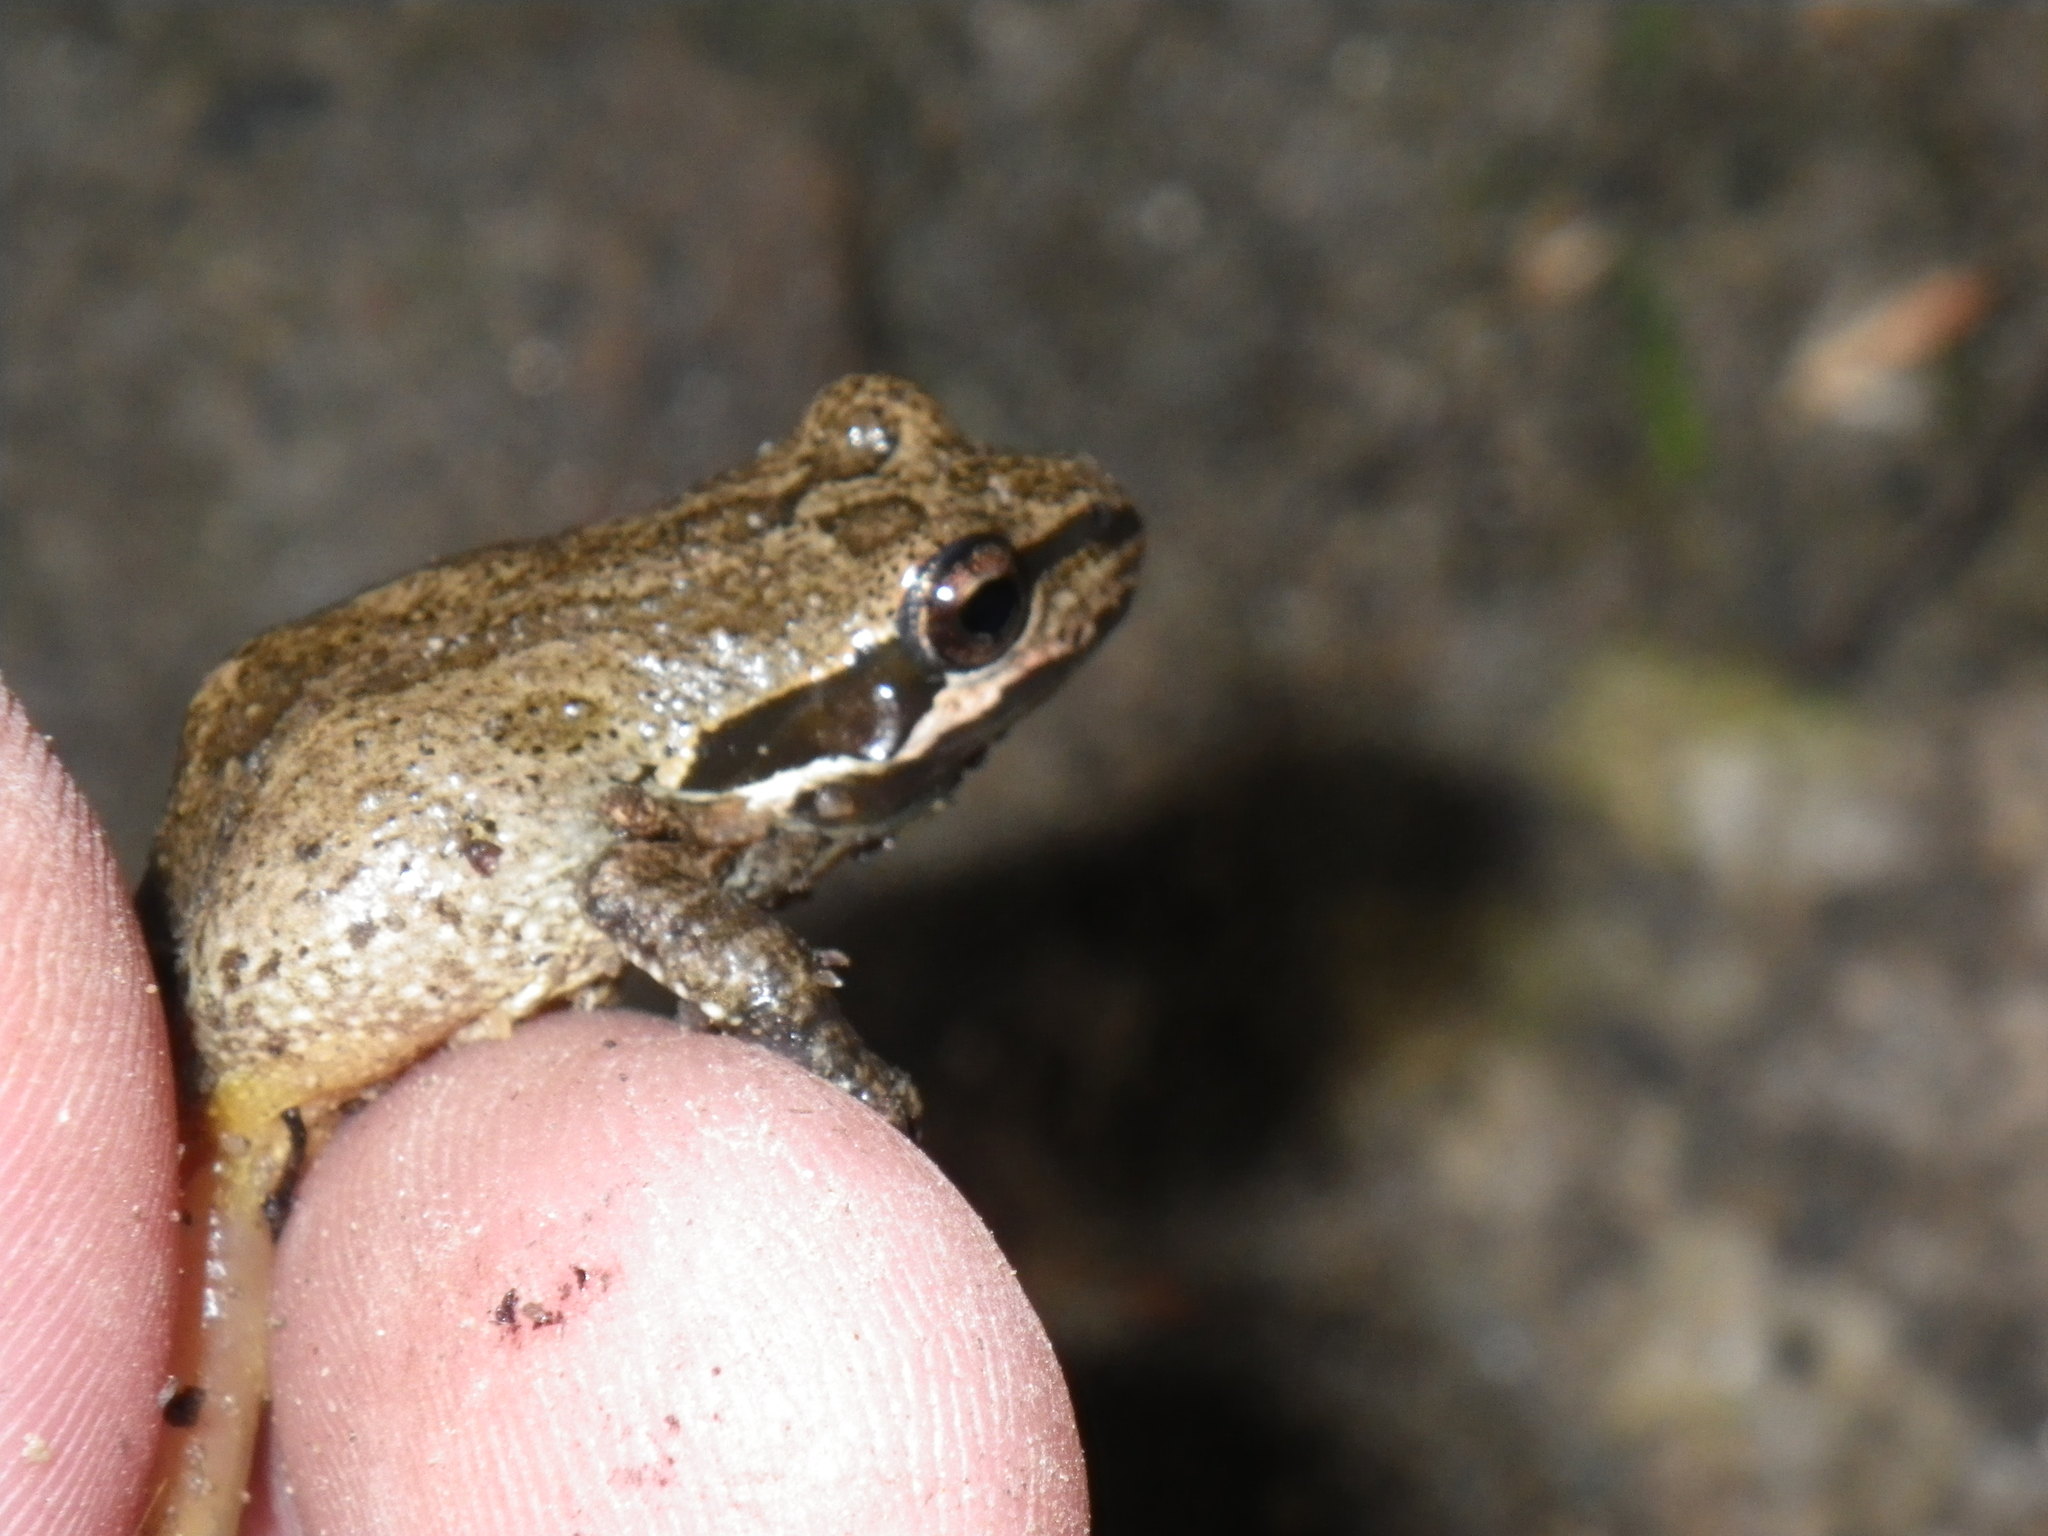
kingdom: Animalia
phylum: Chordata
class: Amphibia
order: Anura
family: Hylidae
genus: Pseudacris
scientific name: Pseudacris regilla
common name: Pacific chorus frog
